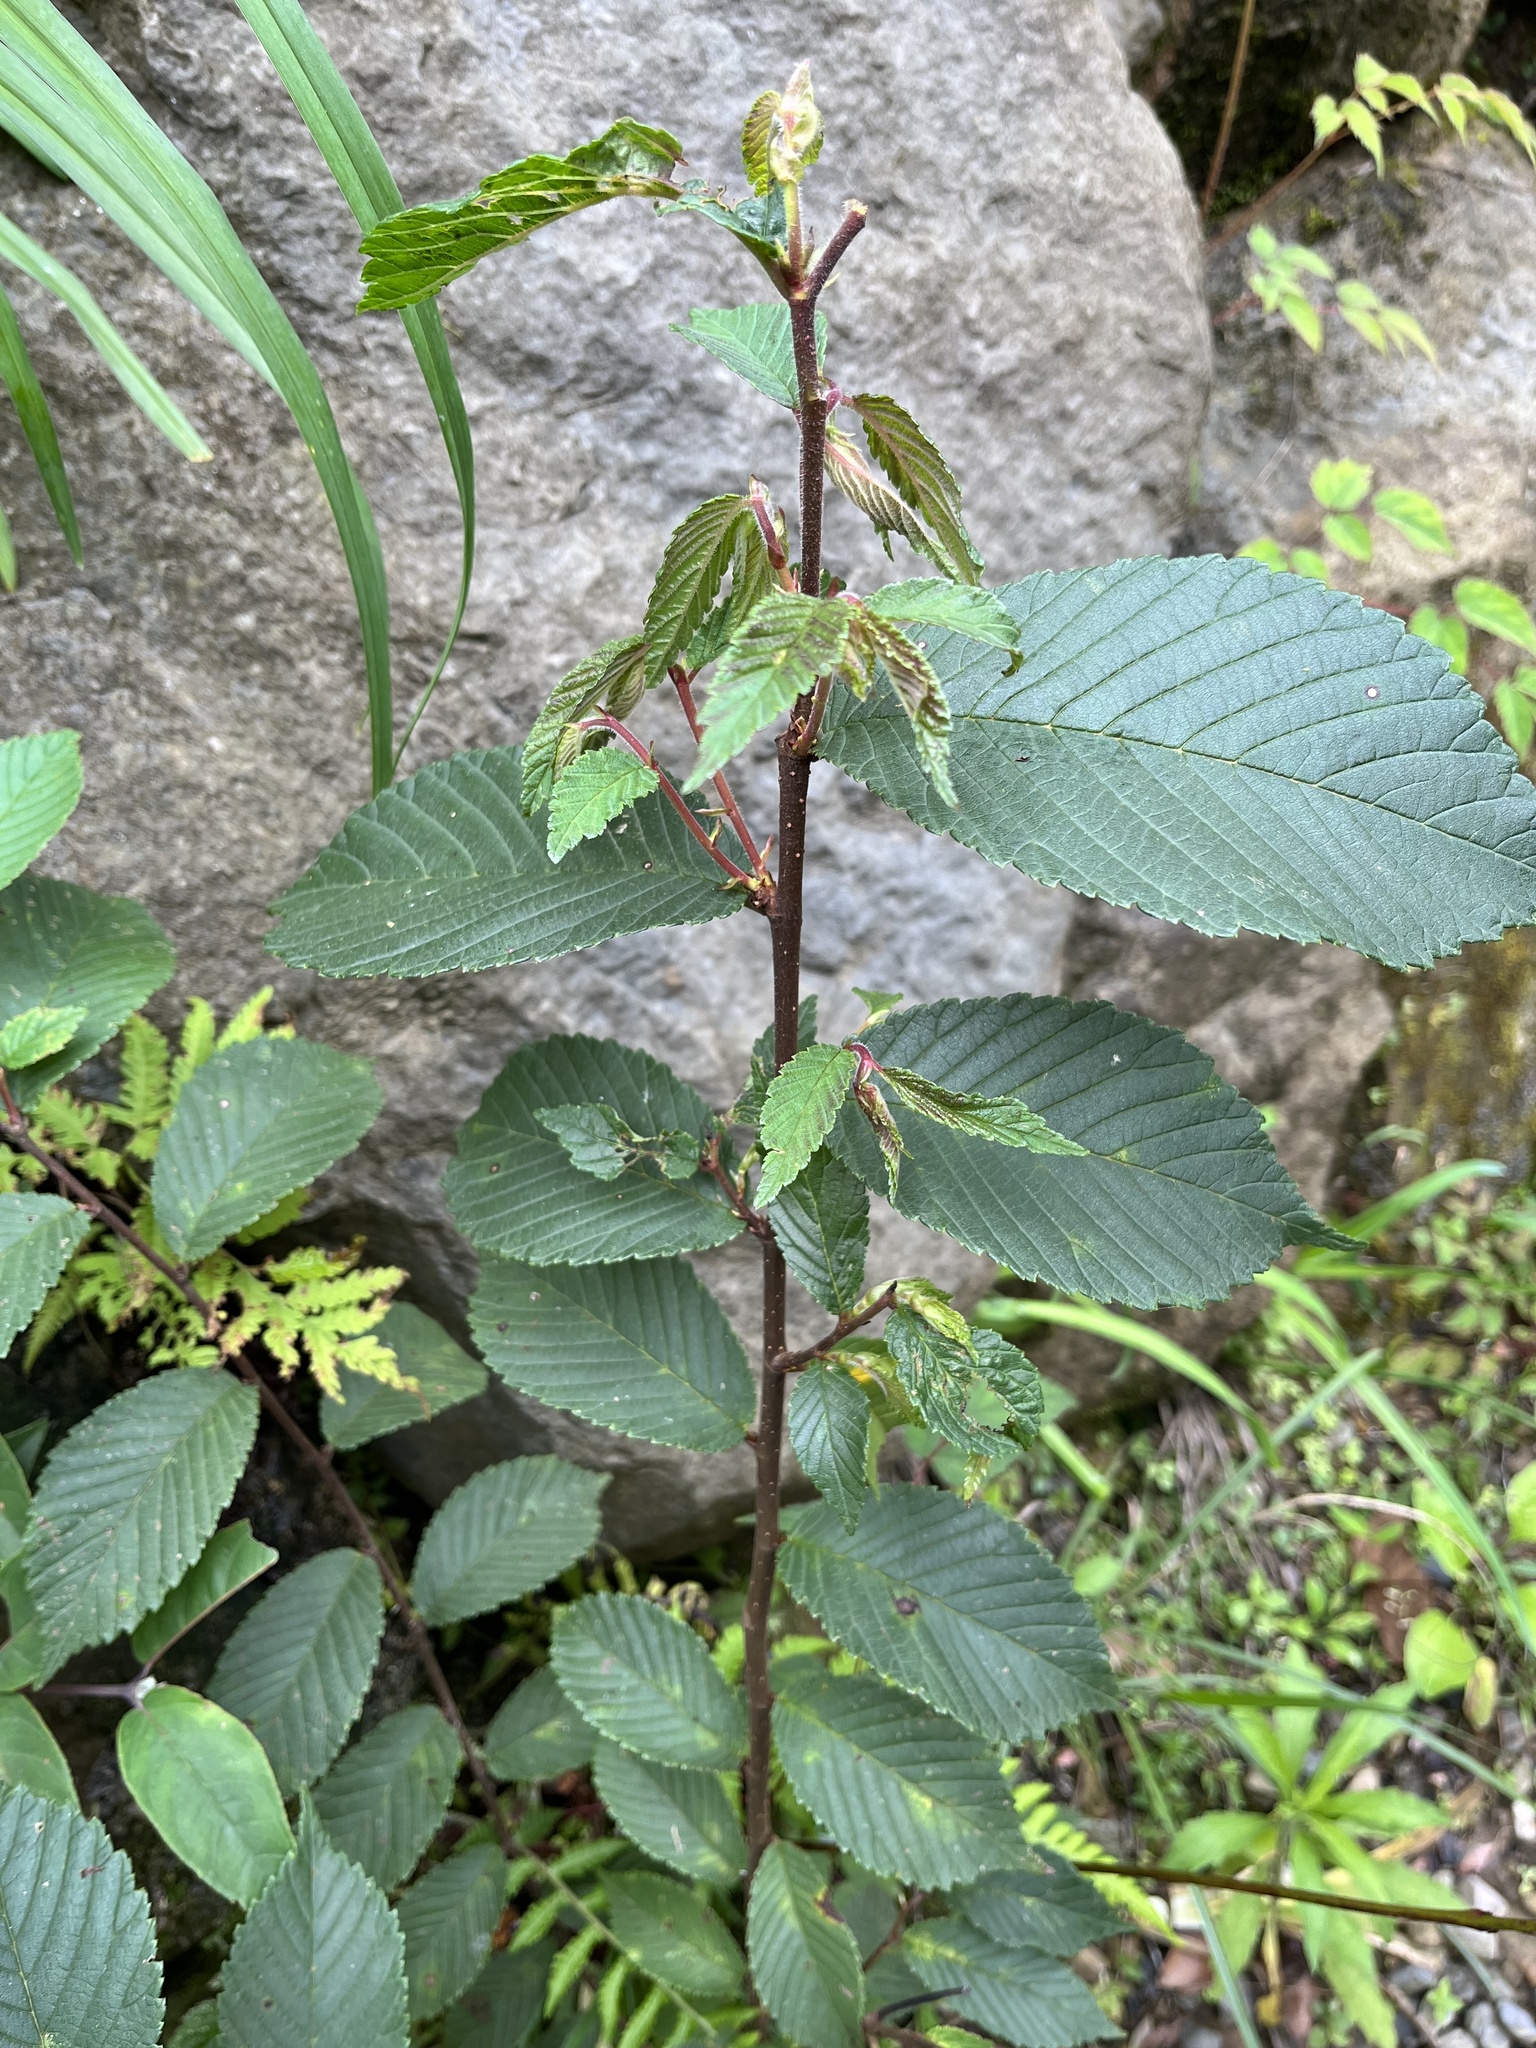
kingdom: Plantae
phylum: Tracheophyta
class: Magnoliopsida
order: Rosales
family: Ulmaceae
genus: Ulmus
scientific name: Ulmus uyematsui
